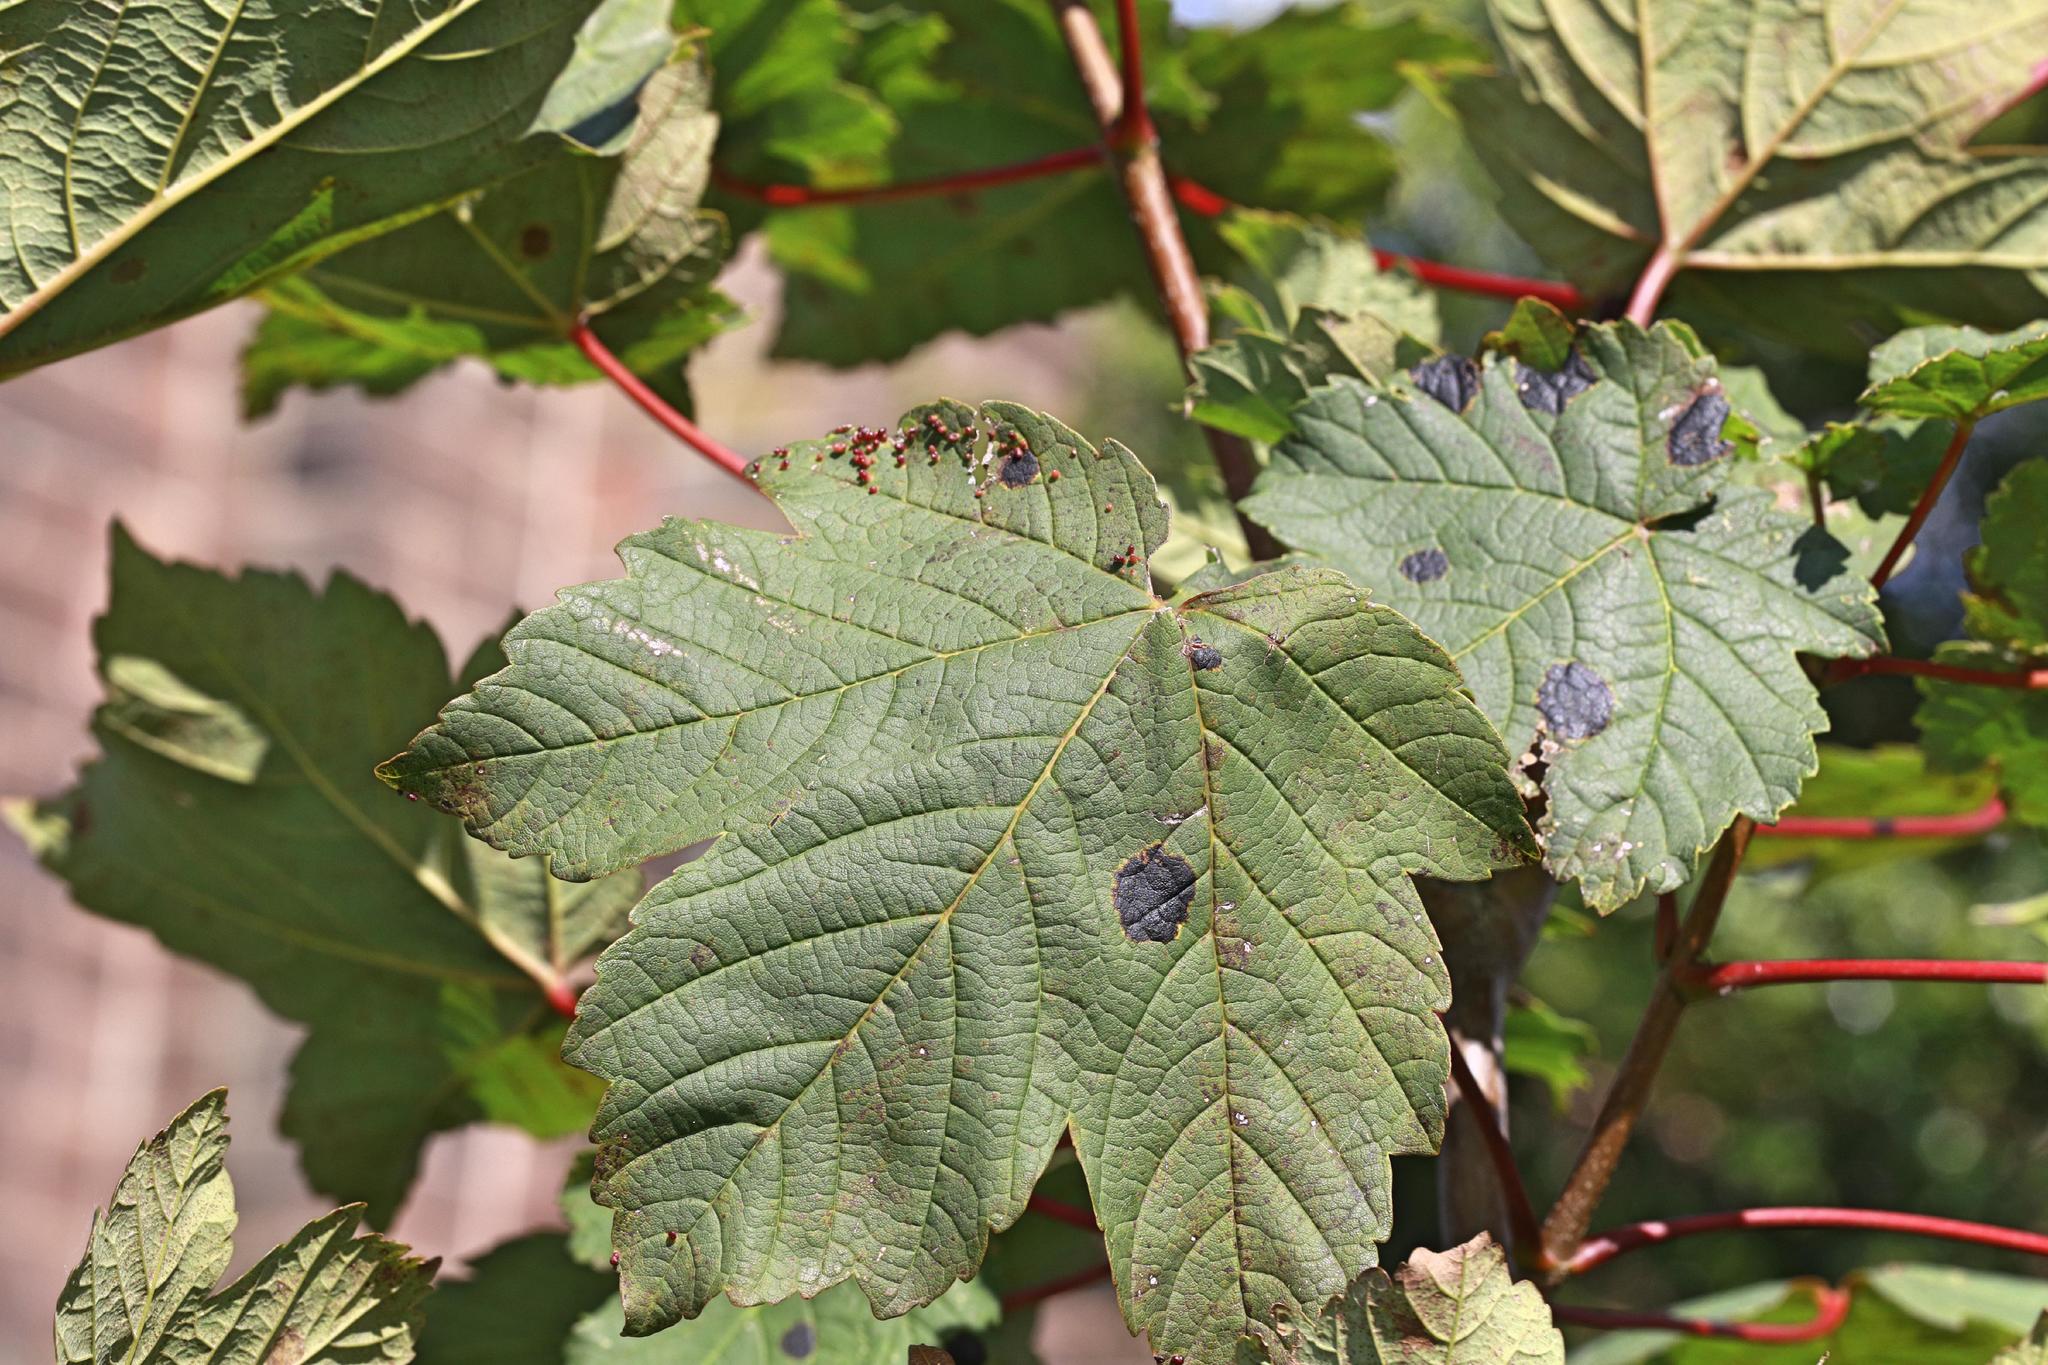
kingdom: Fungi
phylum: Ascomycota
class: Leotiomycetes
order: Rhytismatales
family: Rhytismataceae
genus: Rhytisma
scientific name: Rhytisma acerinum
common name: European tar spot
